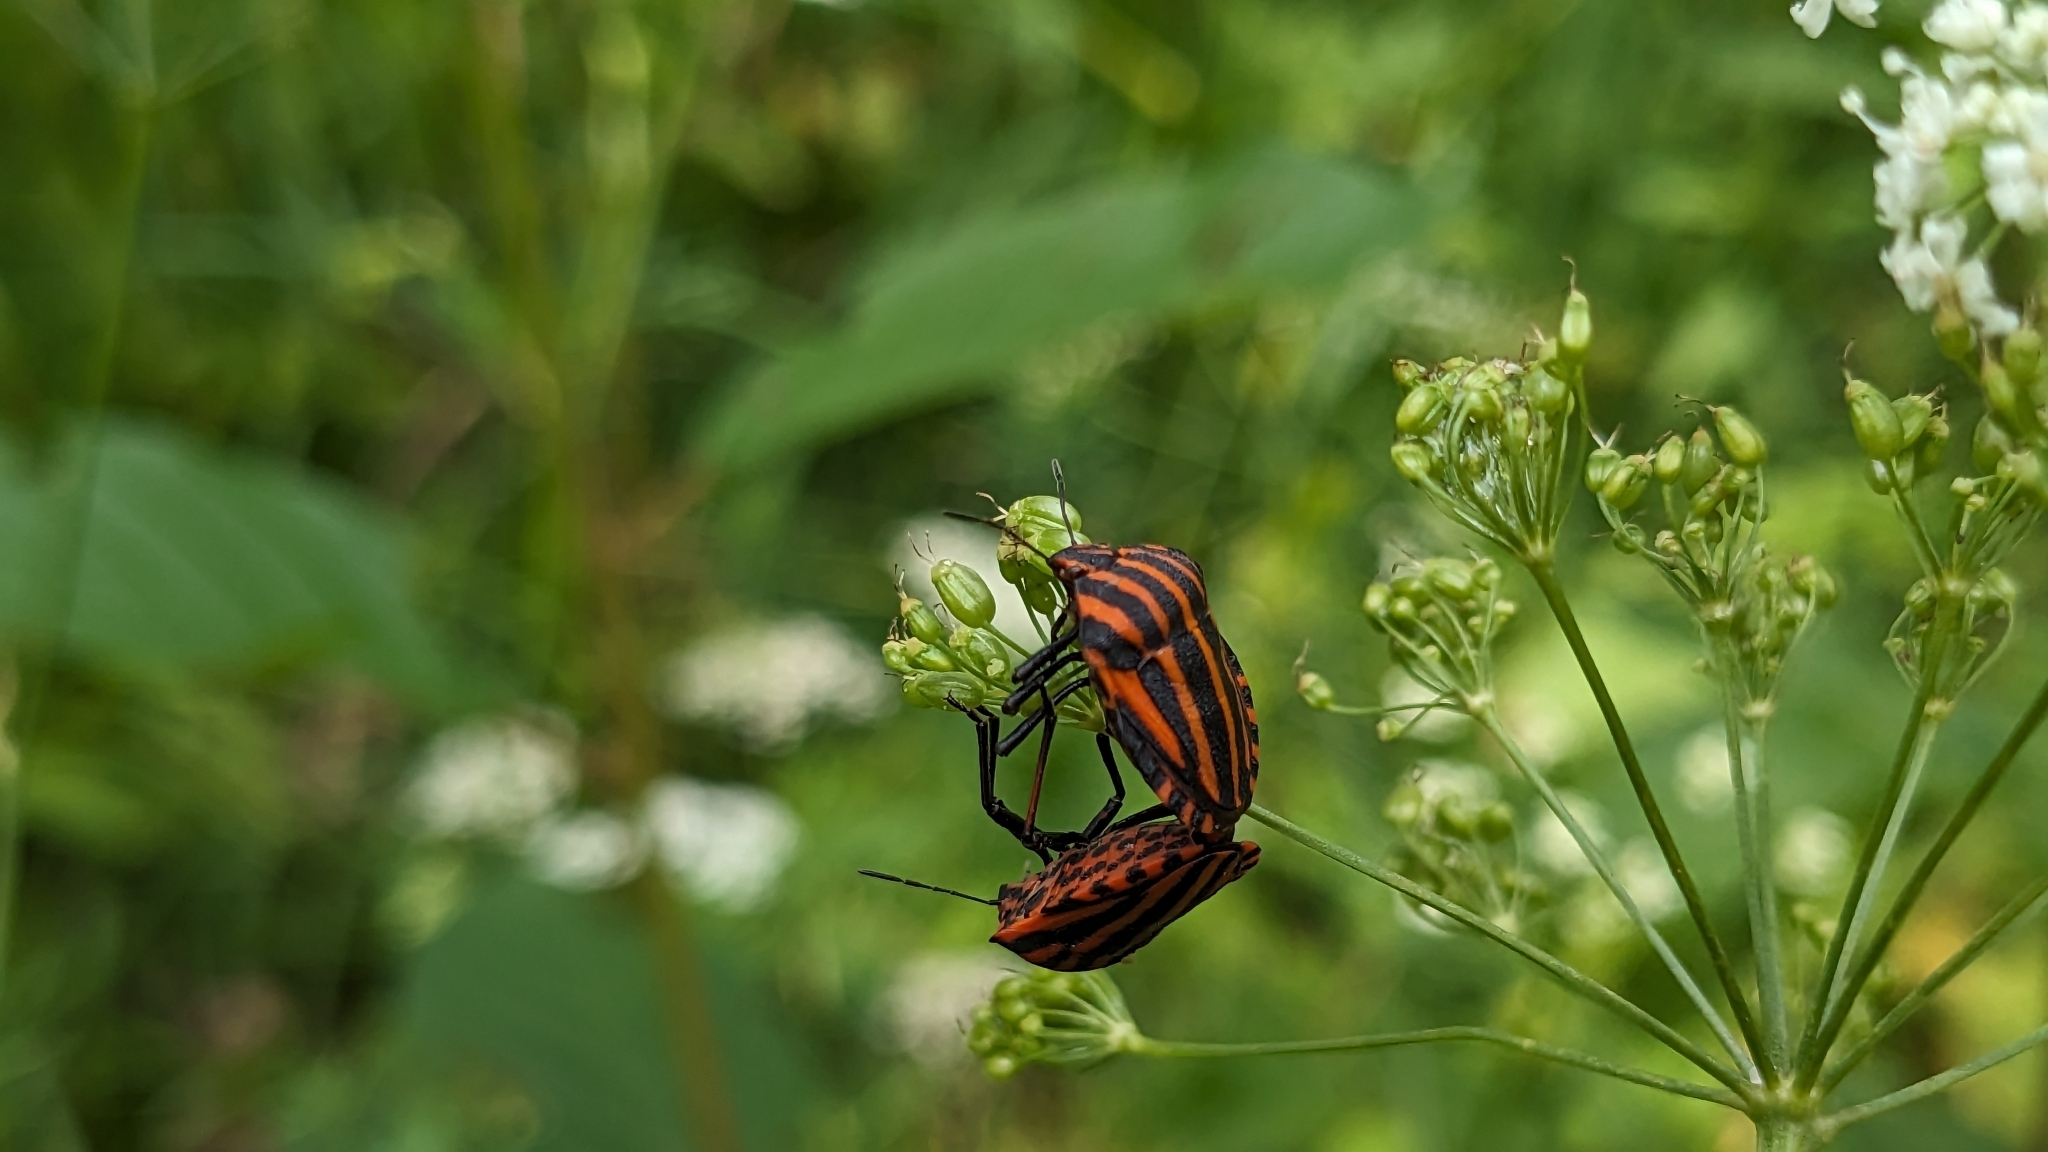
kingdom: Animalia
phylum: Arthropoda
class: Insecta
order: Hemiptera
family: Pentatomidae
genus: Graphosoma
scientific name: Graphosoma italicum
